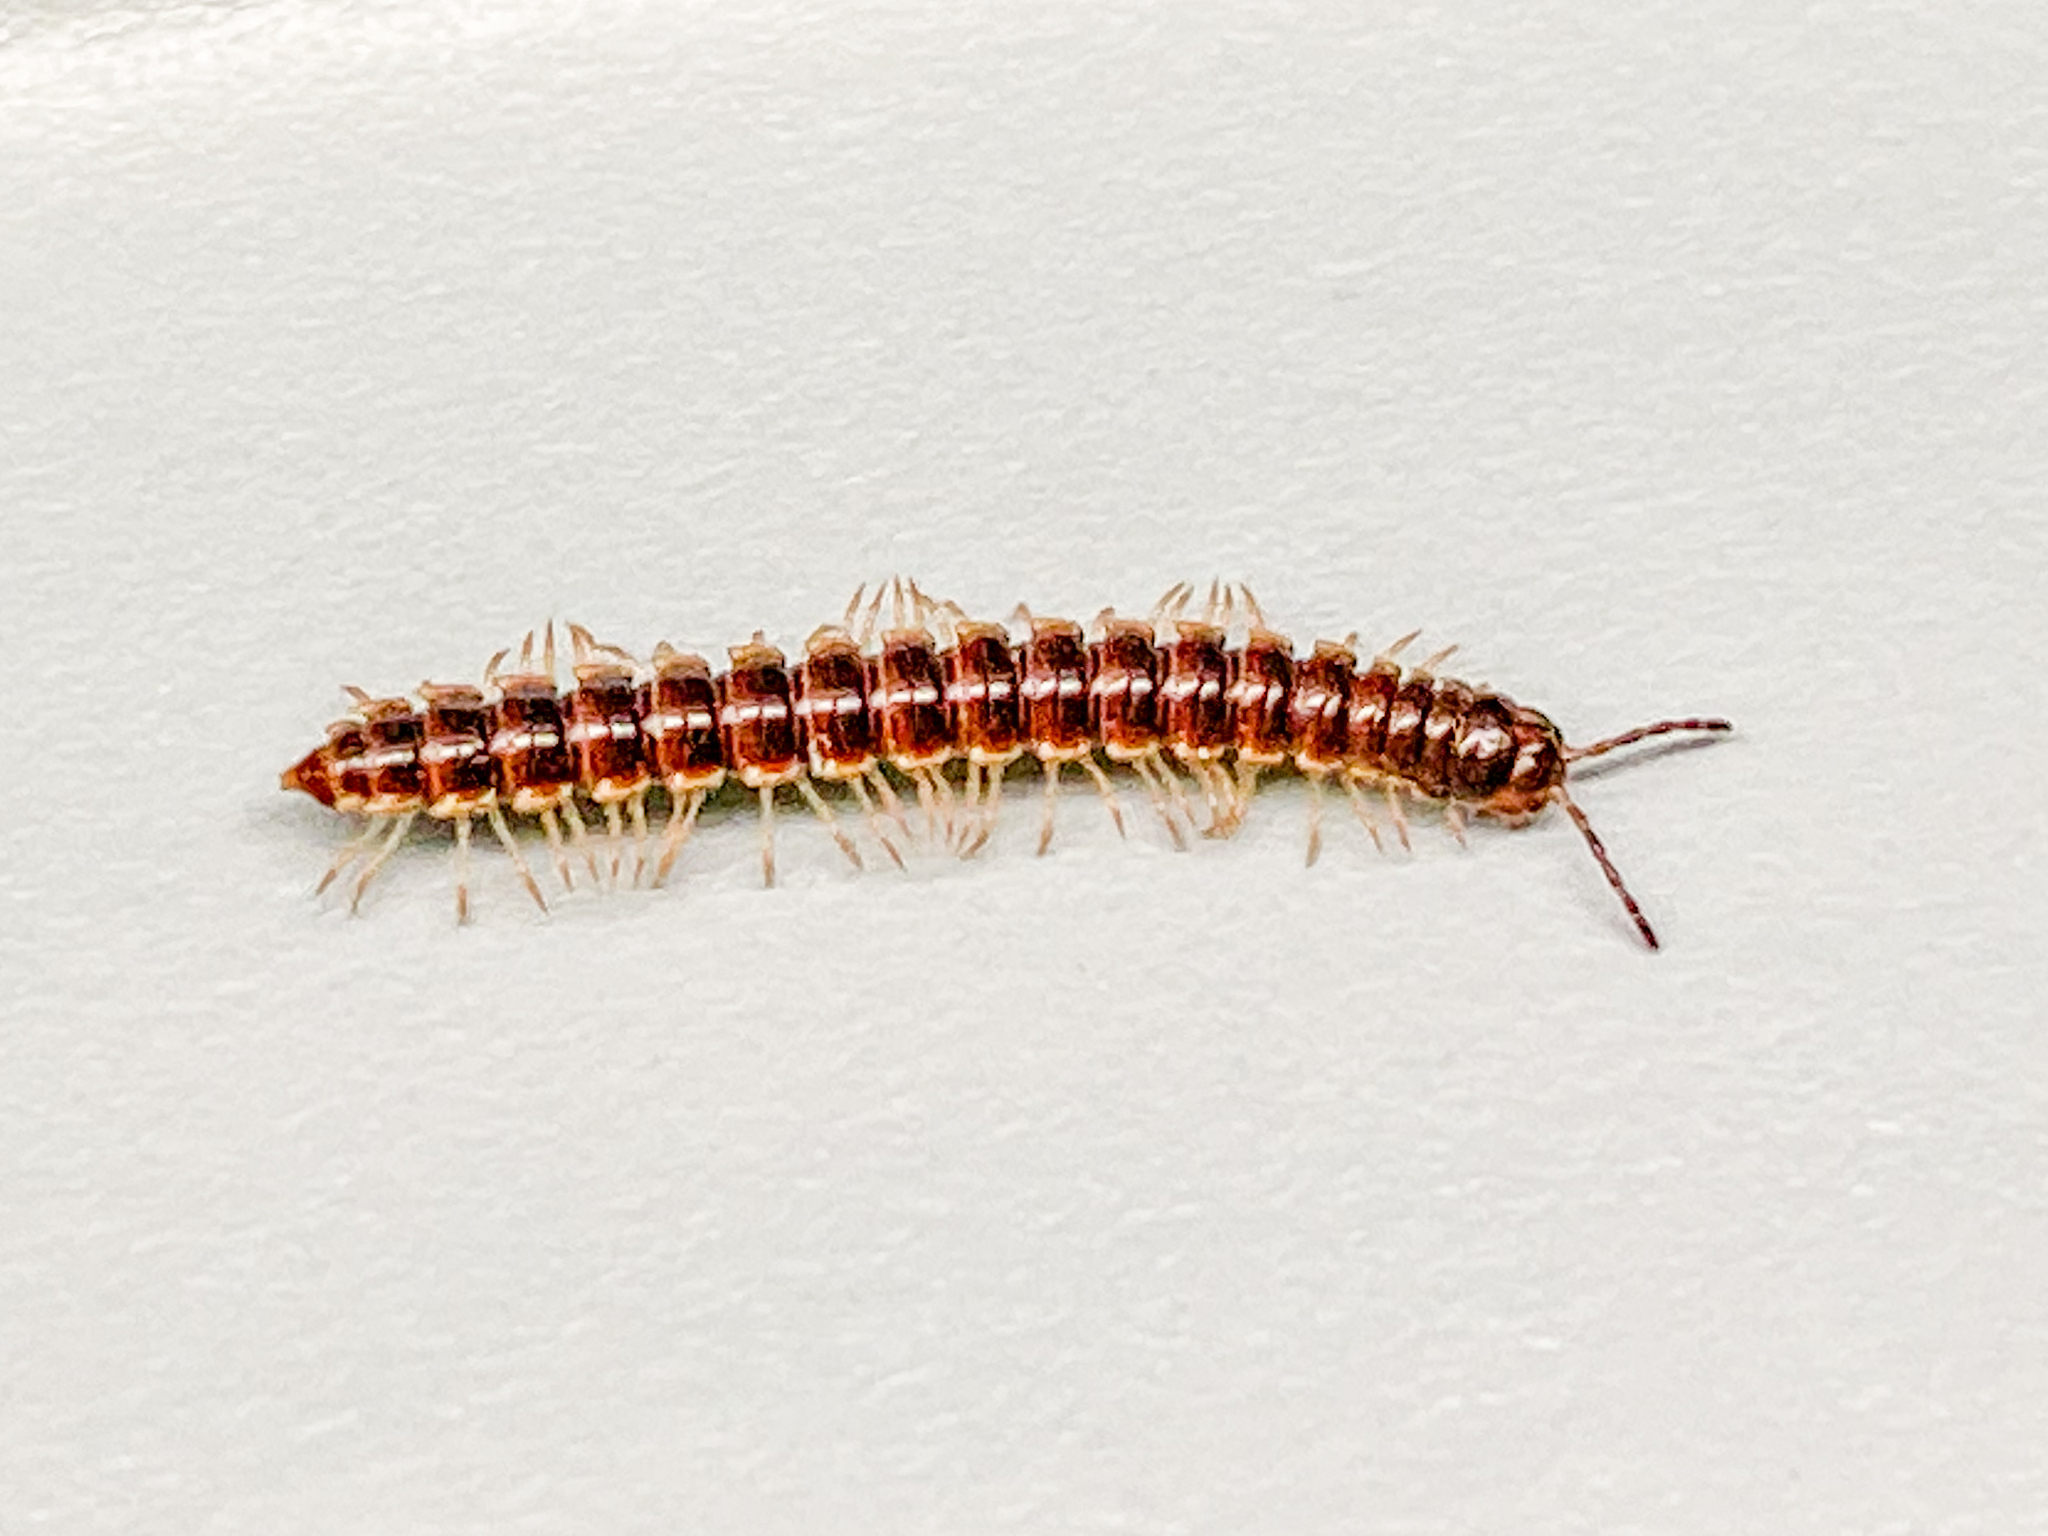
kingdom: Animalia
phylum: Arthropoda
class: Diplopoda
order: Polydesmida
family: Paradoxosomatidae
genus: Oxidus
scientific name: Oxidus gracilis
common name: Greenhouse millipede
